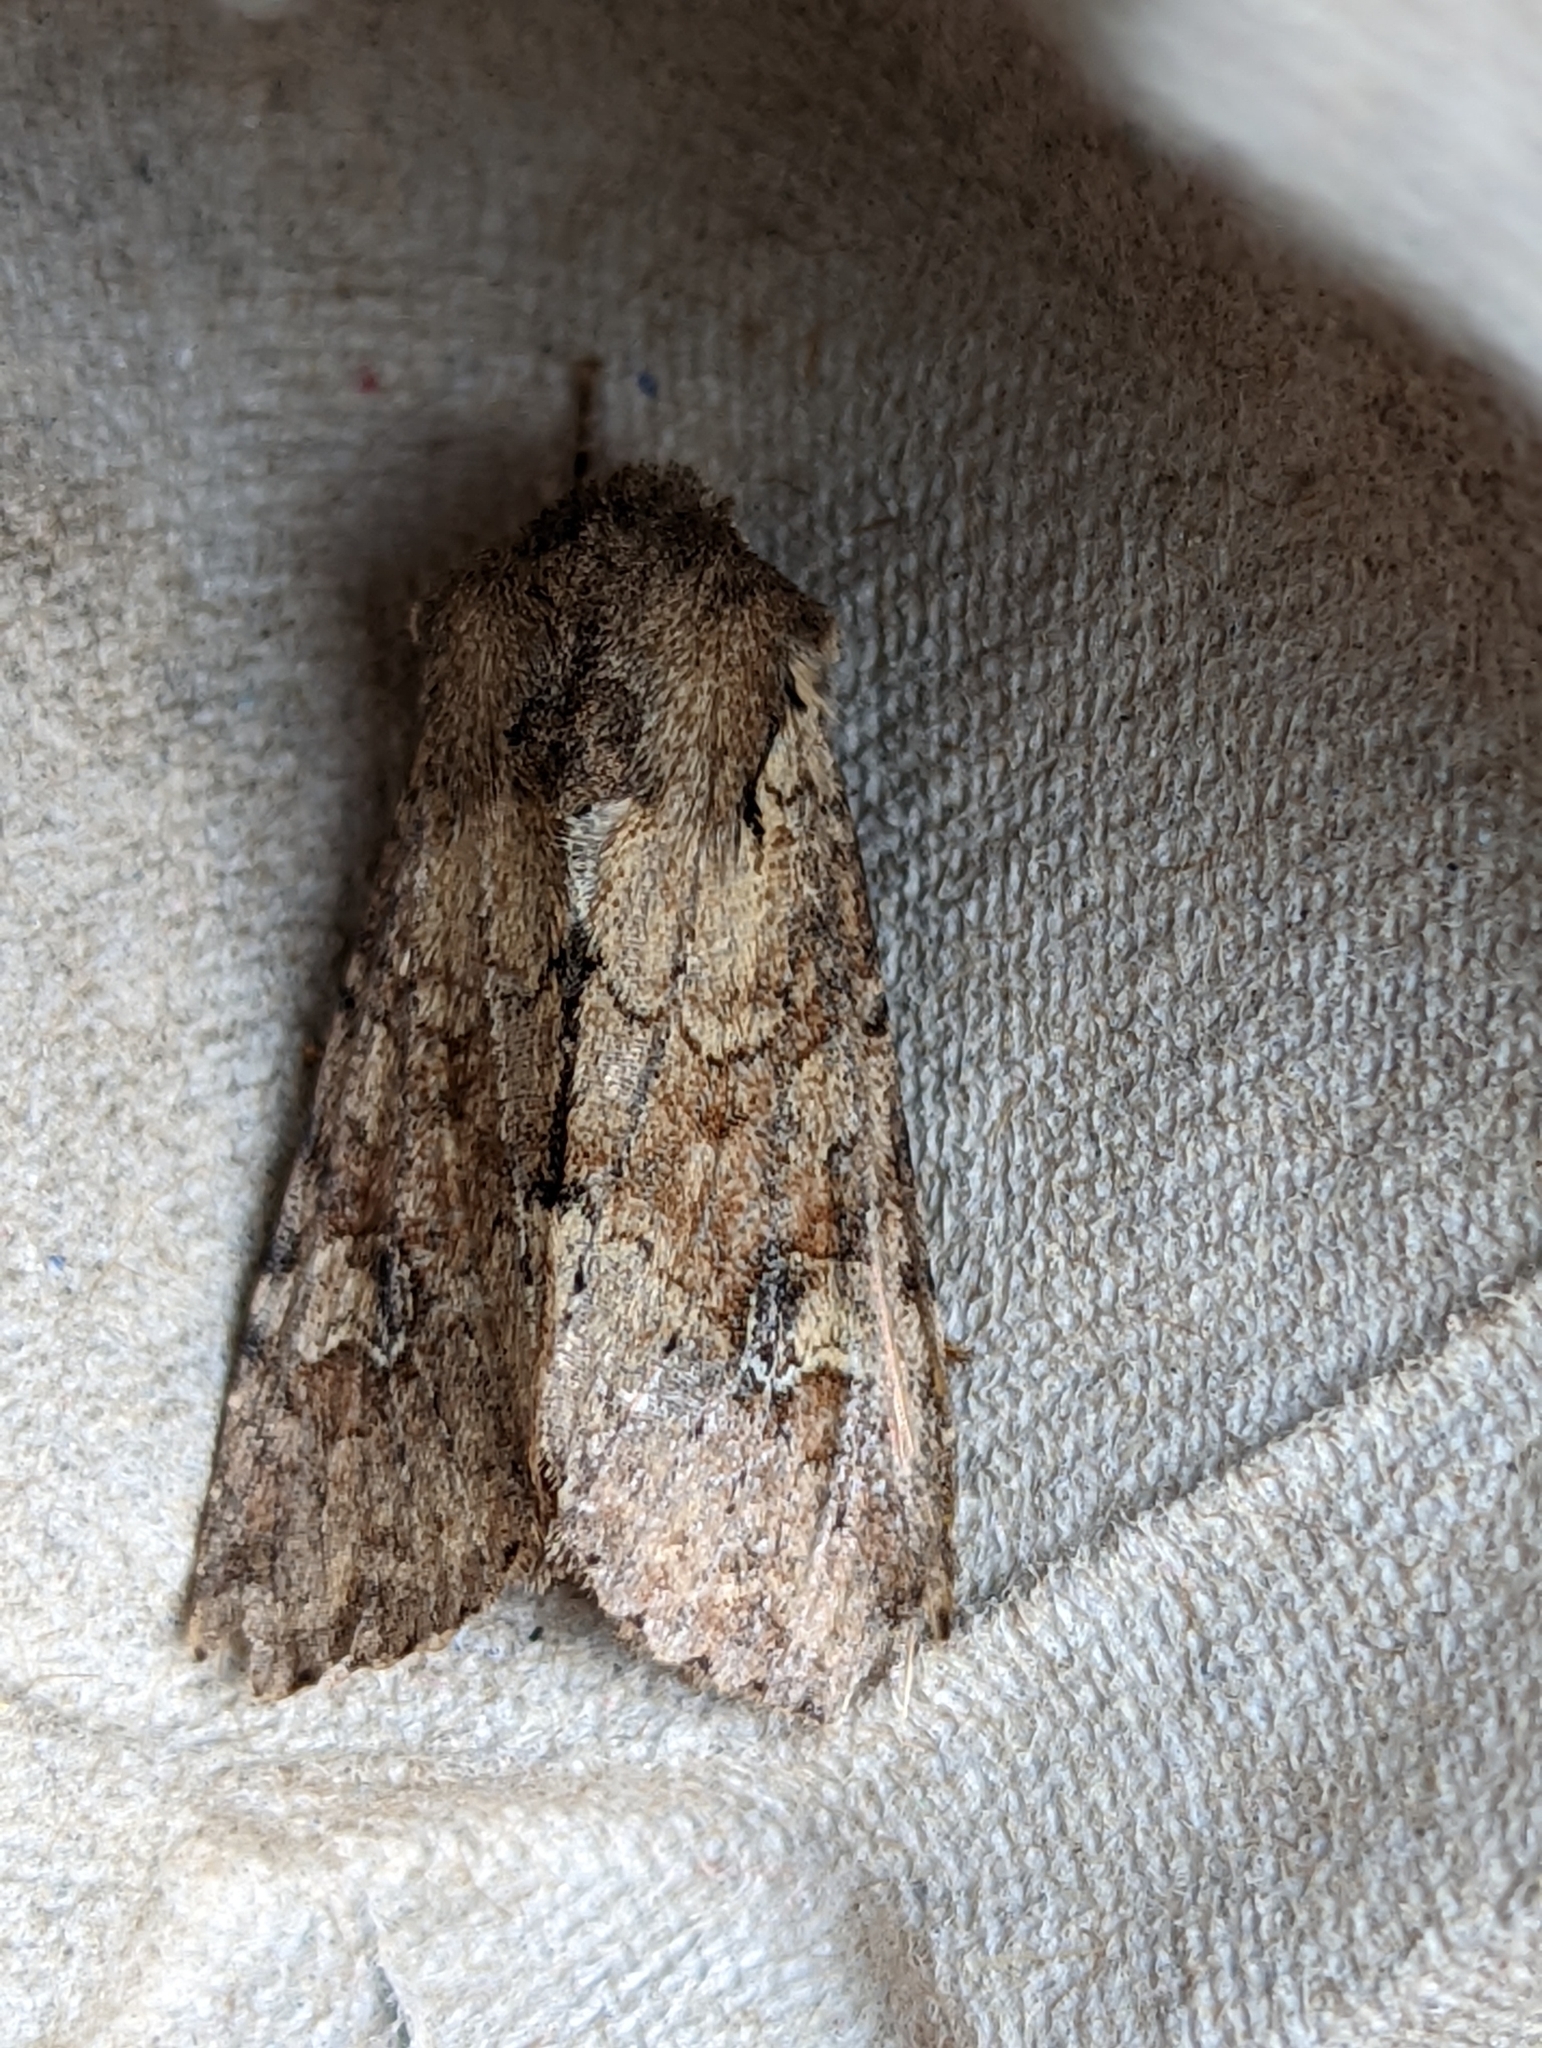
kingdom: Animalia
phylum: Arthropoda
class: Insecta
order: Lepidoptera
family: Noctuidae
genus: Apamea
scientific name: Apamea sordens
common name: Rustic shoulder-knot
